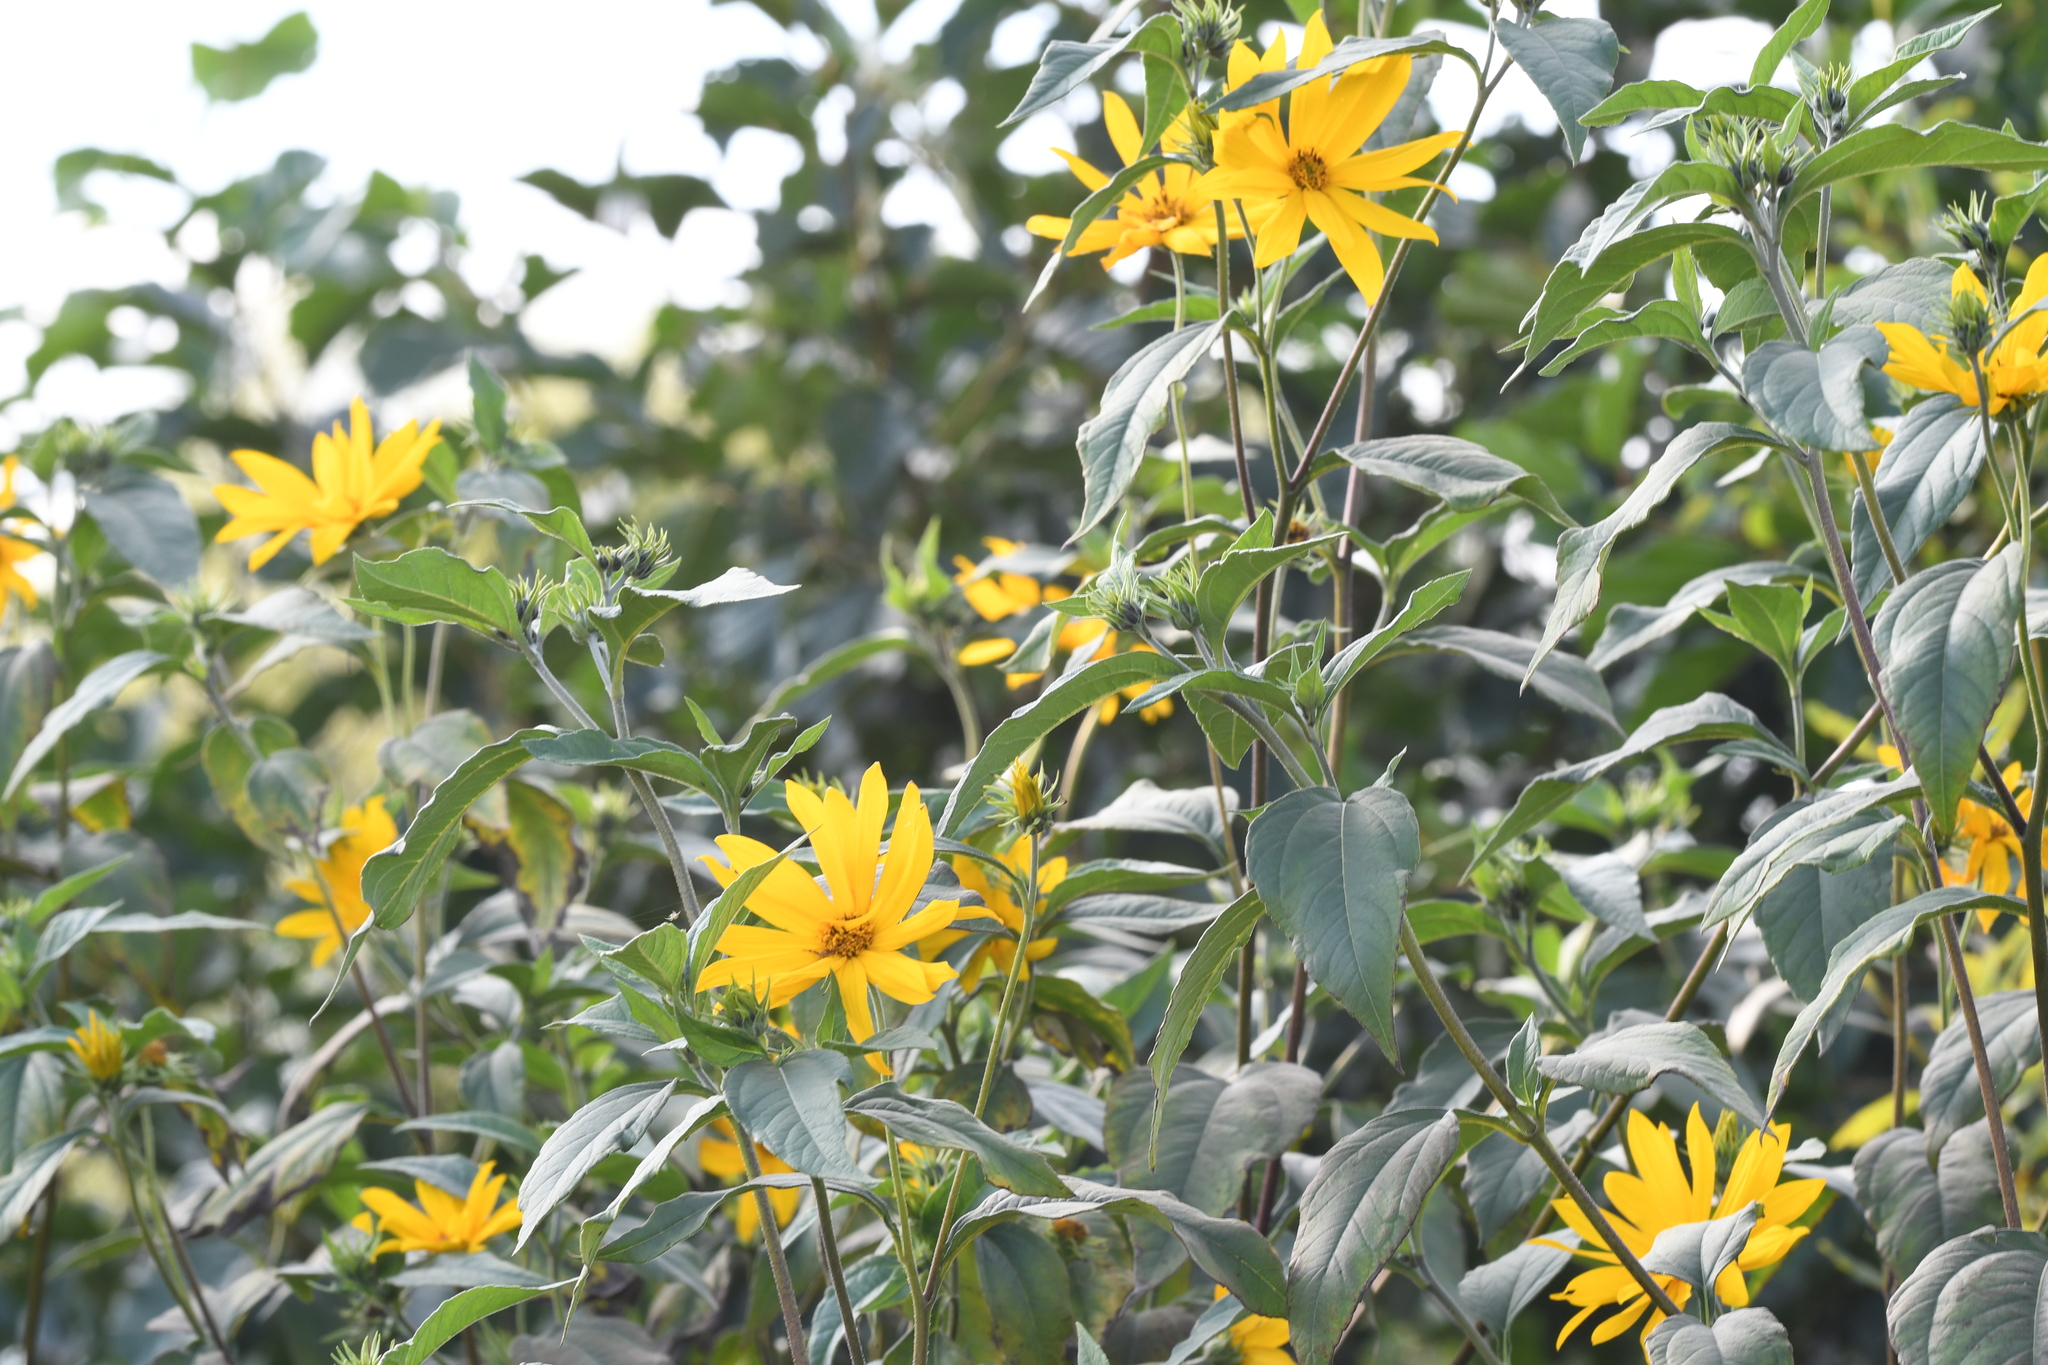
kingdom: Plantae
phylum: Tracheophyta
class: Magnoliopsida
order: Asterales
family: Asteraceae
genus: Helianthus
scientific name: Helianthus tuberosus
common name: Jerusalem artichoke
